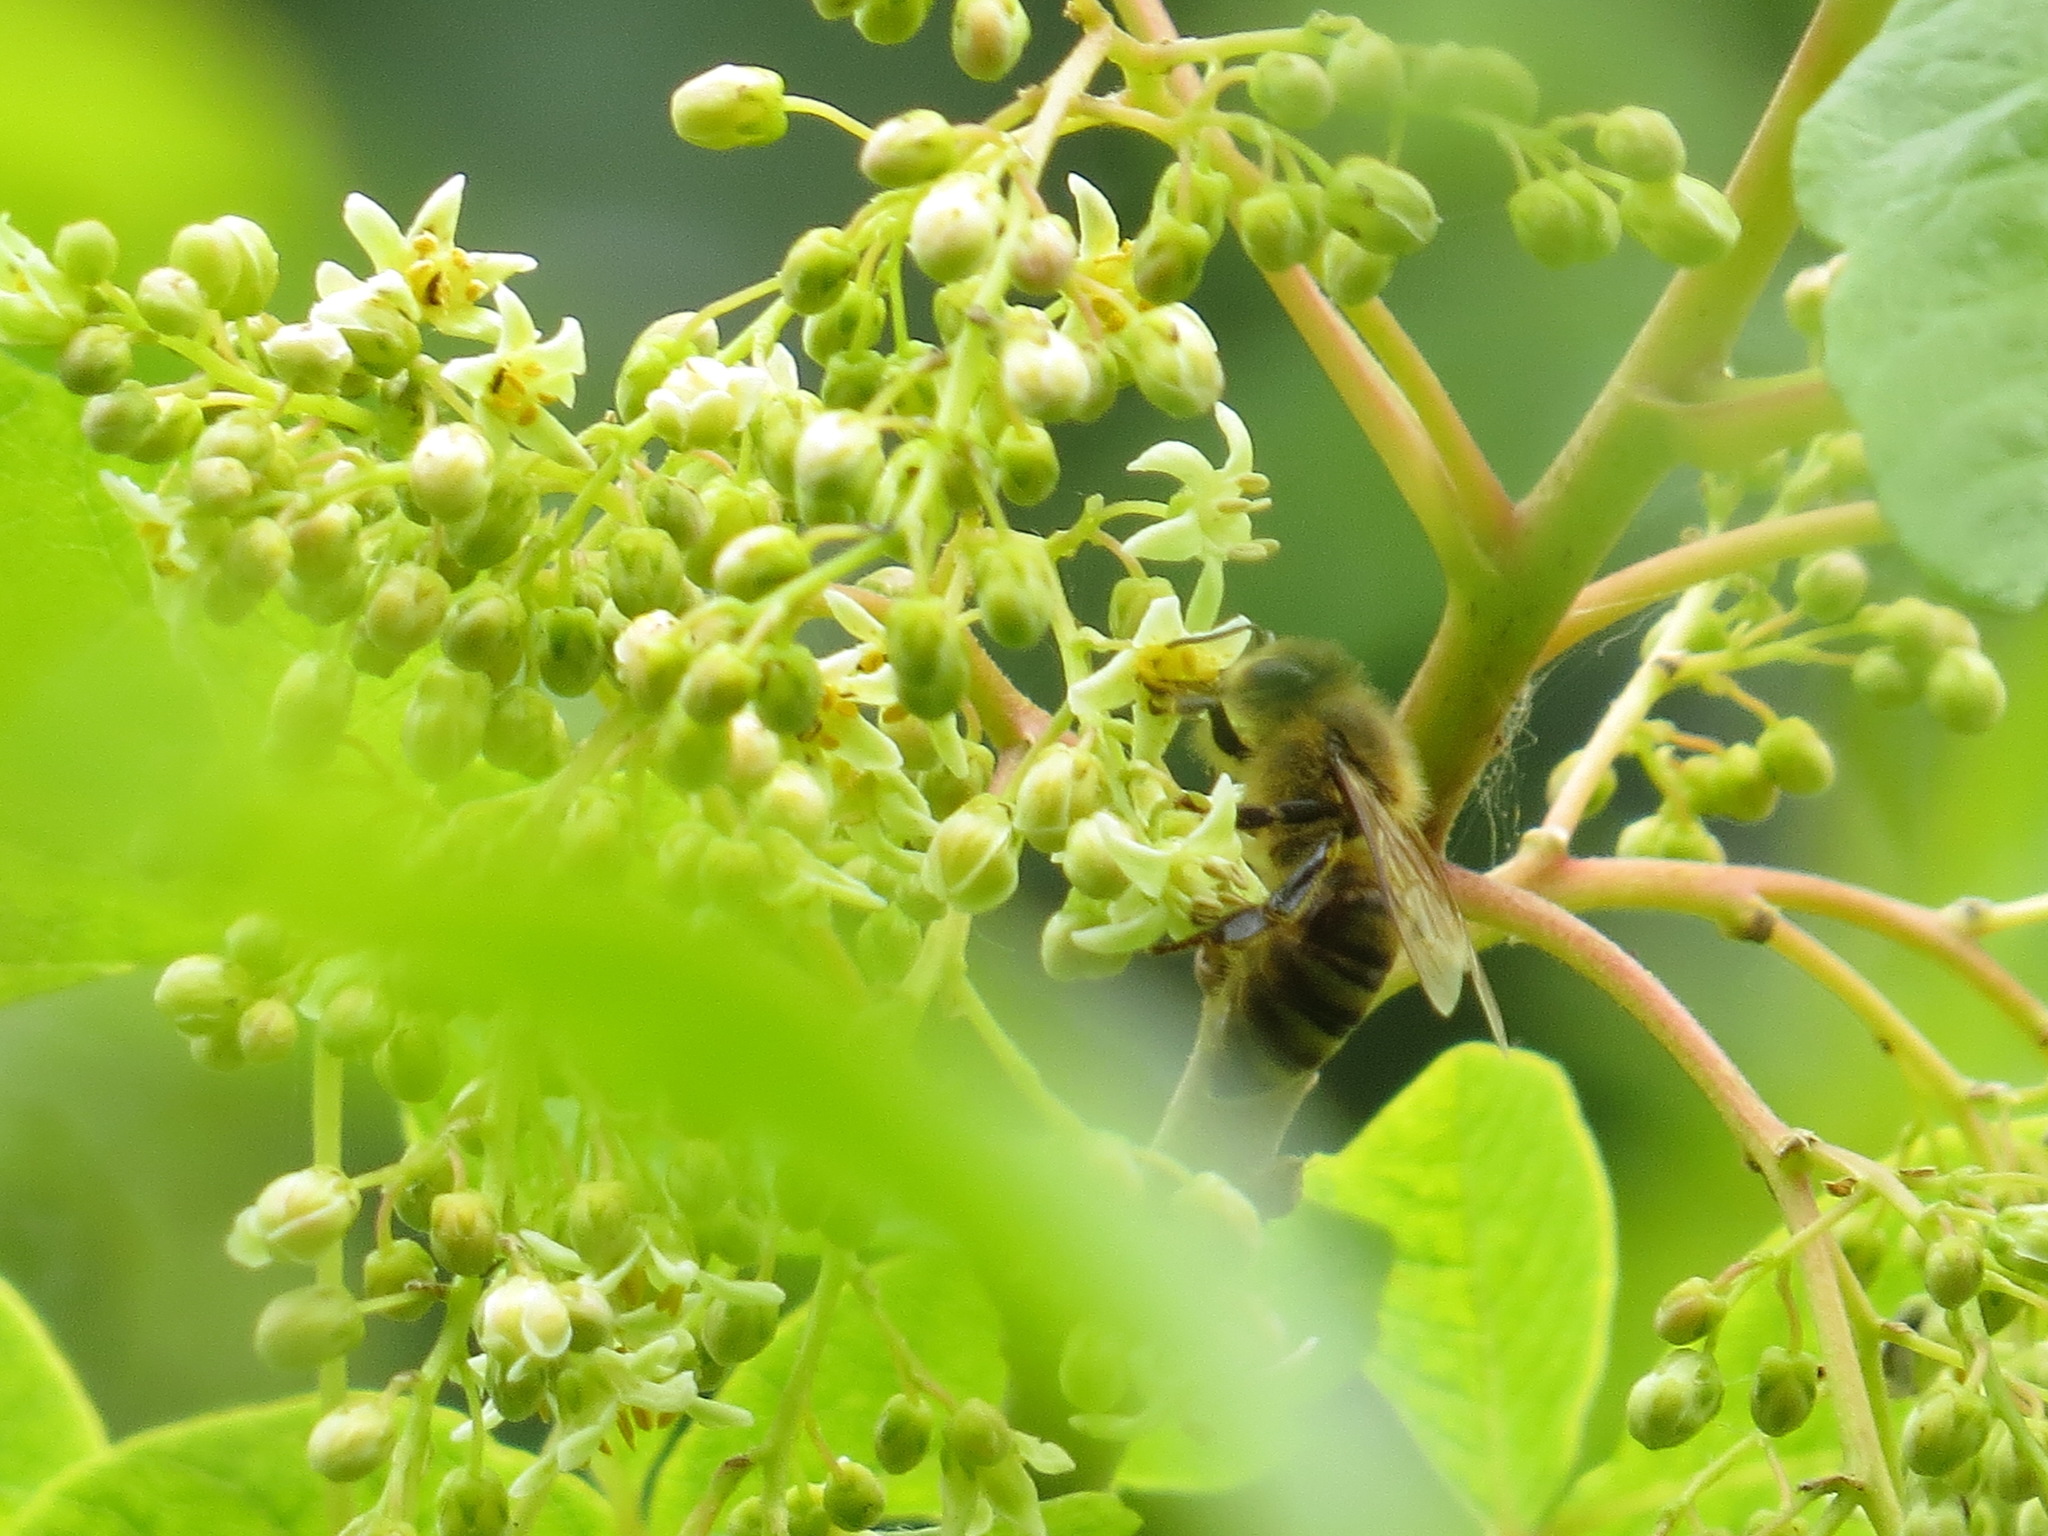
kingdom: Animalia
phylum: Arthropoda
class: Insecta
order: Hymenoptera
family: Apidae
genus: Apis
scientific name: Apis mellifera
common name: Honey bee
